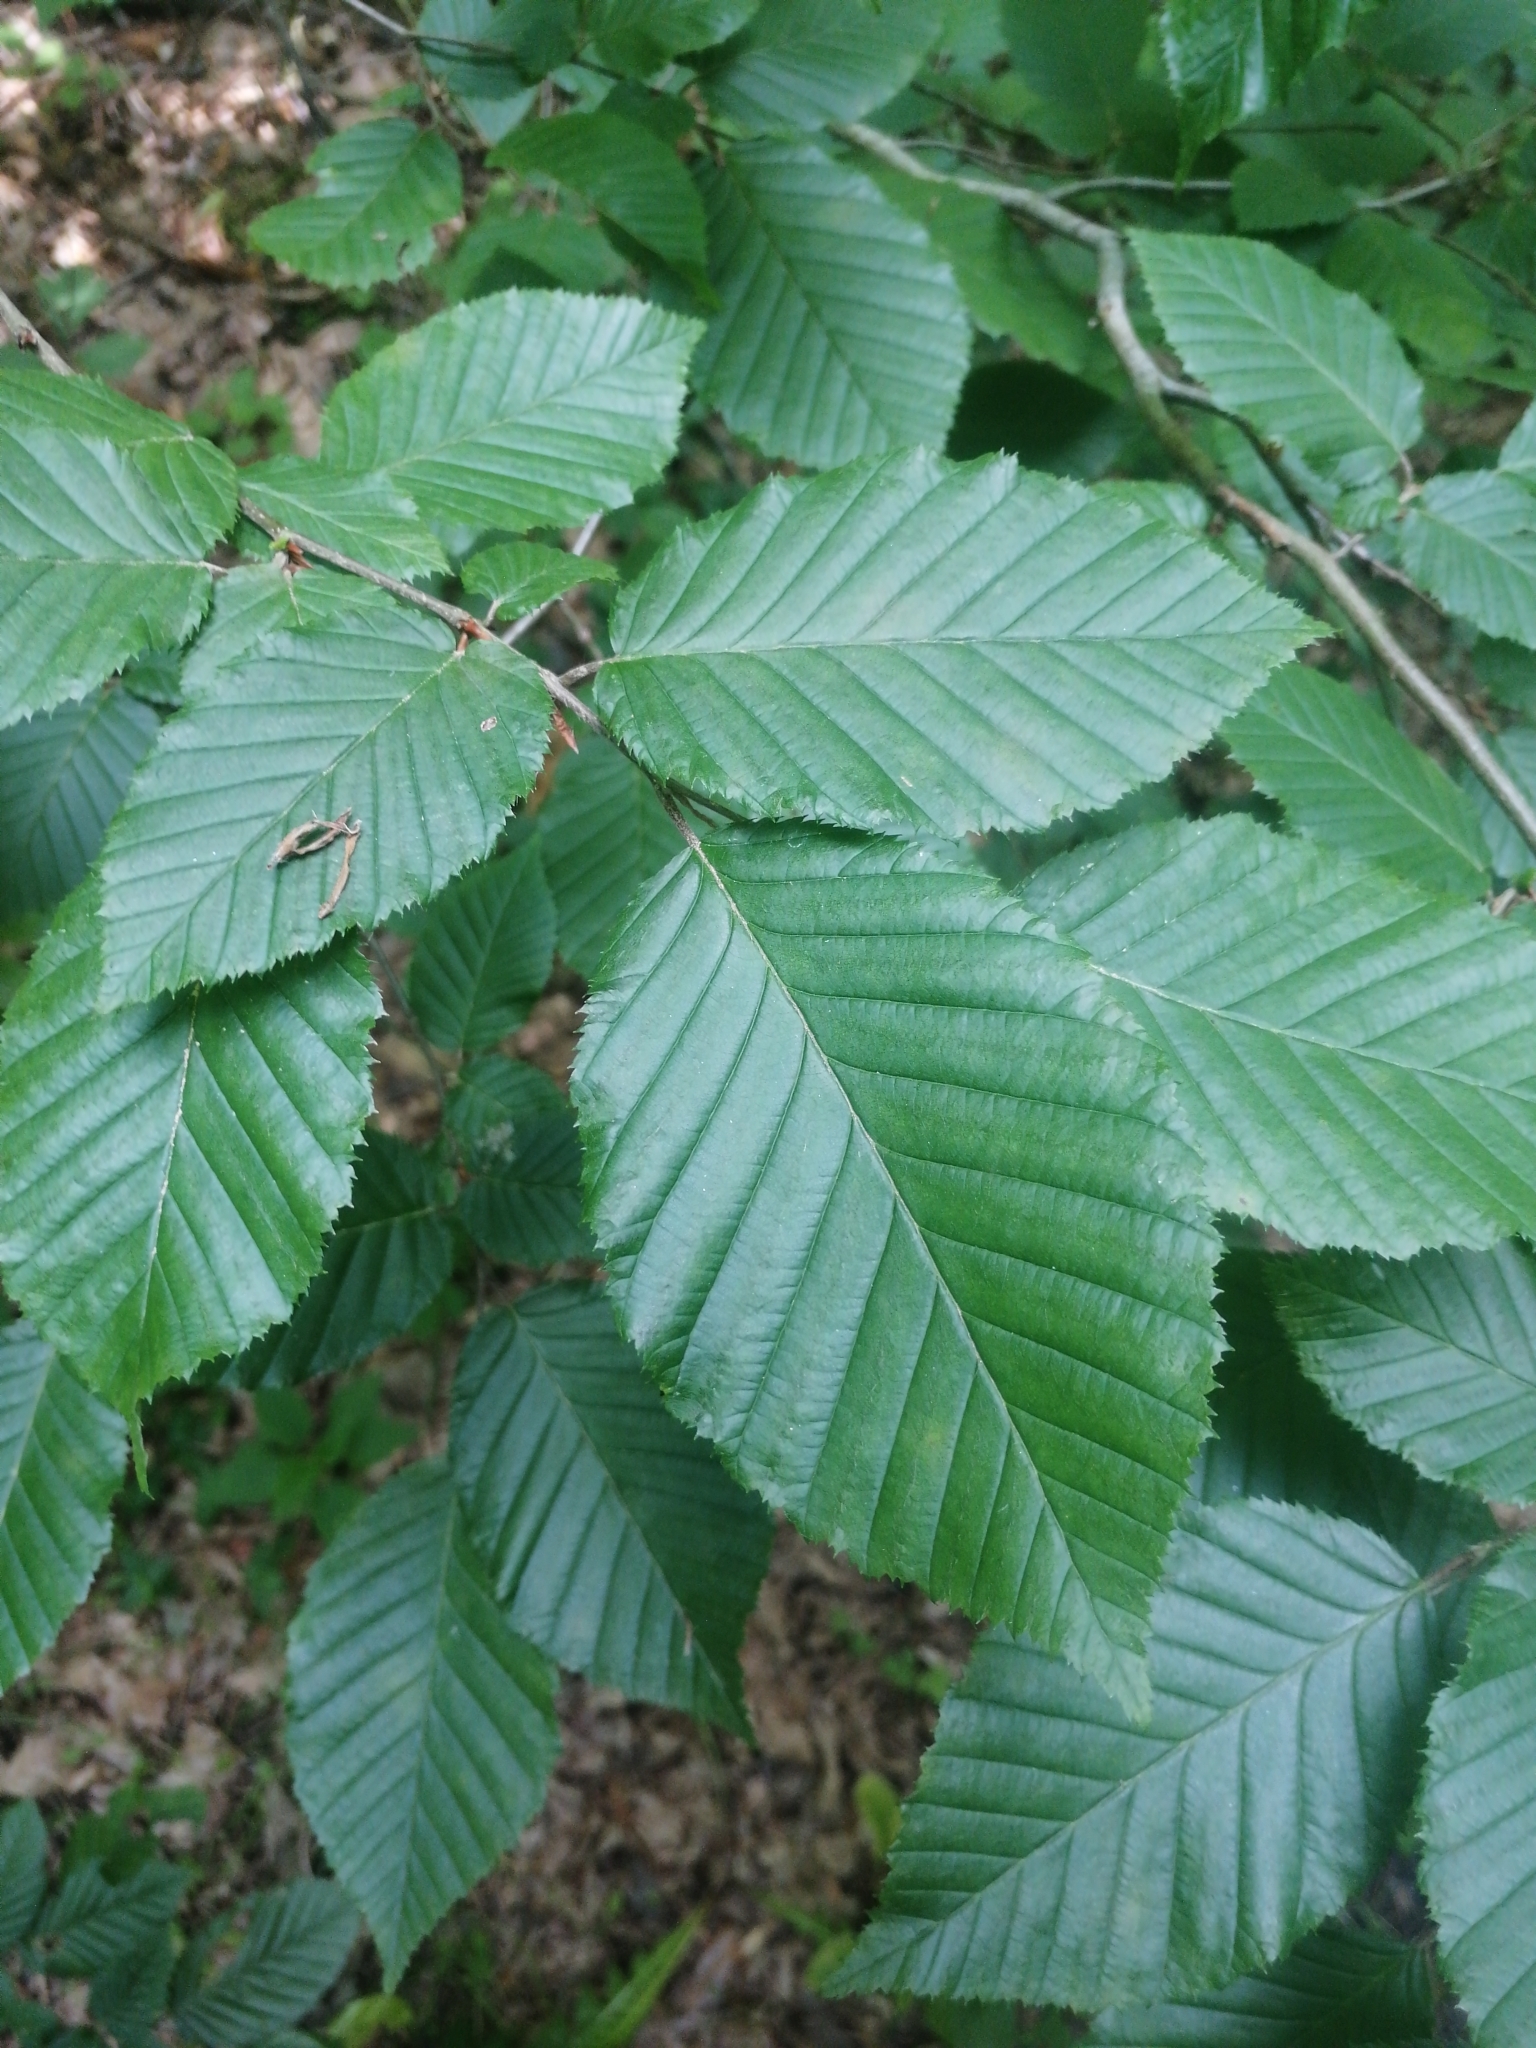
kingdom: Plantae
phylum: Tracheophyta
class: Magnoliopsida
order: Fagales
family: Betulaceae
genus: Carpinus
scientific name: Carpinus betulus
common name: Hornbeam
